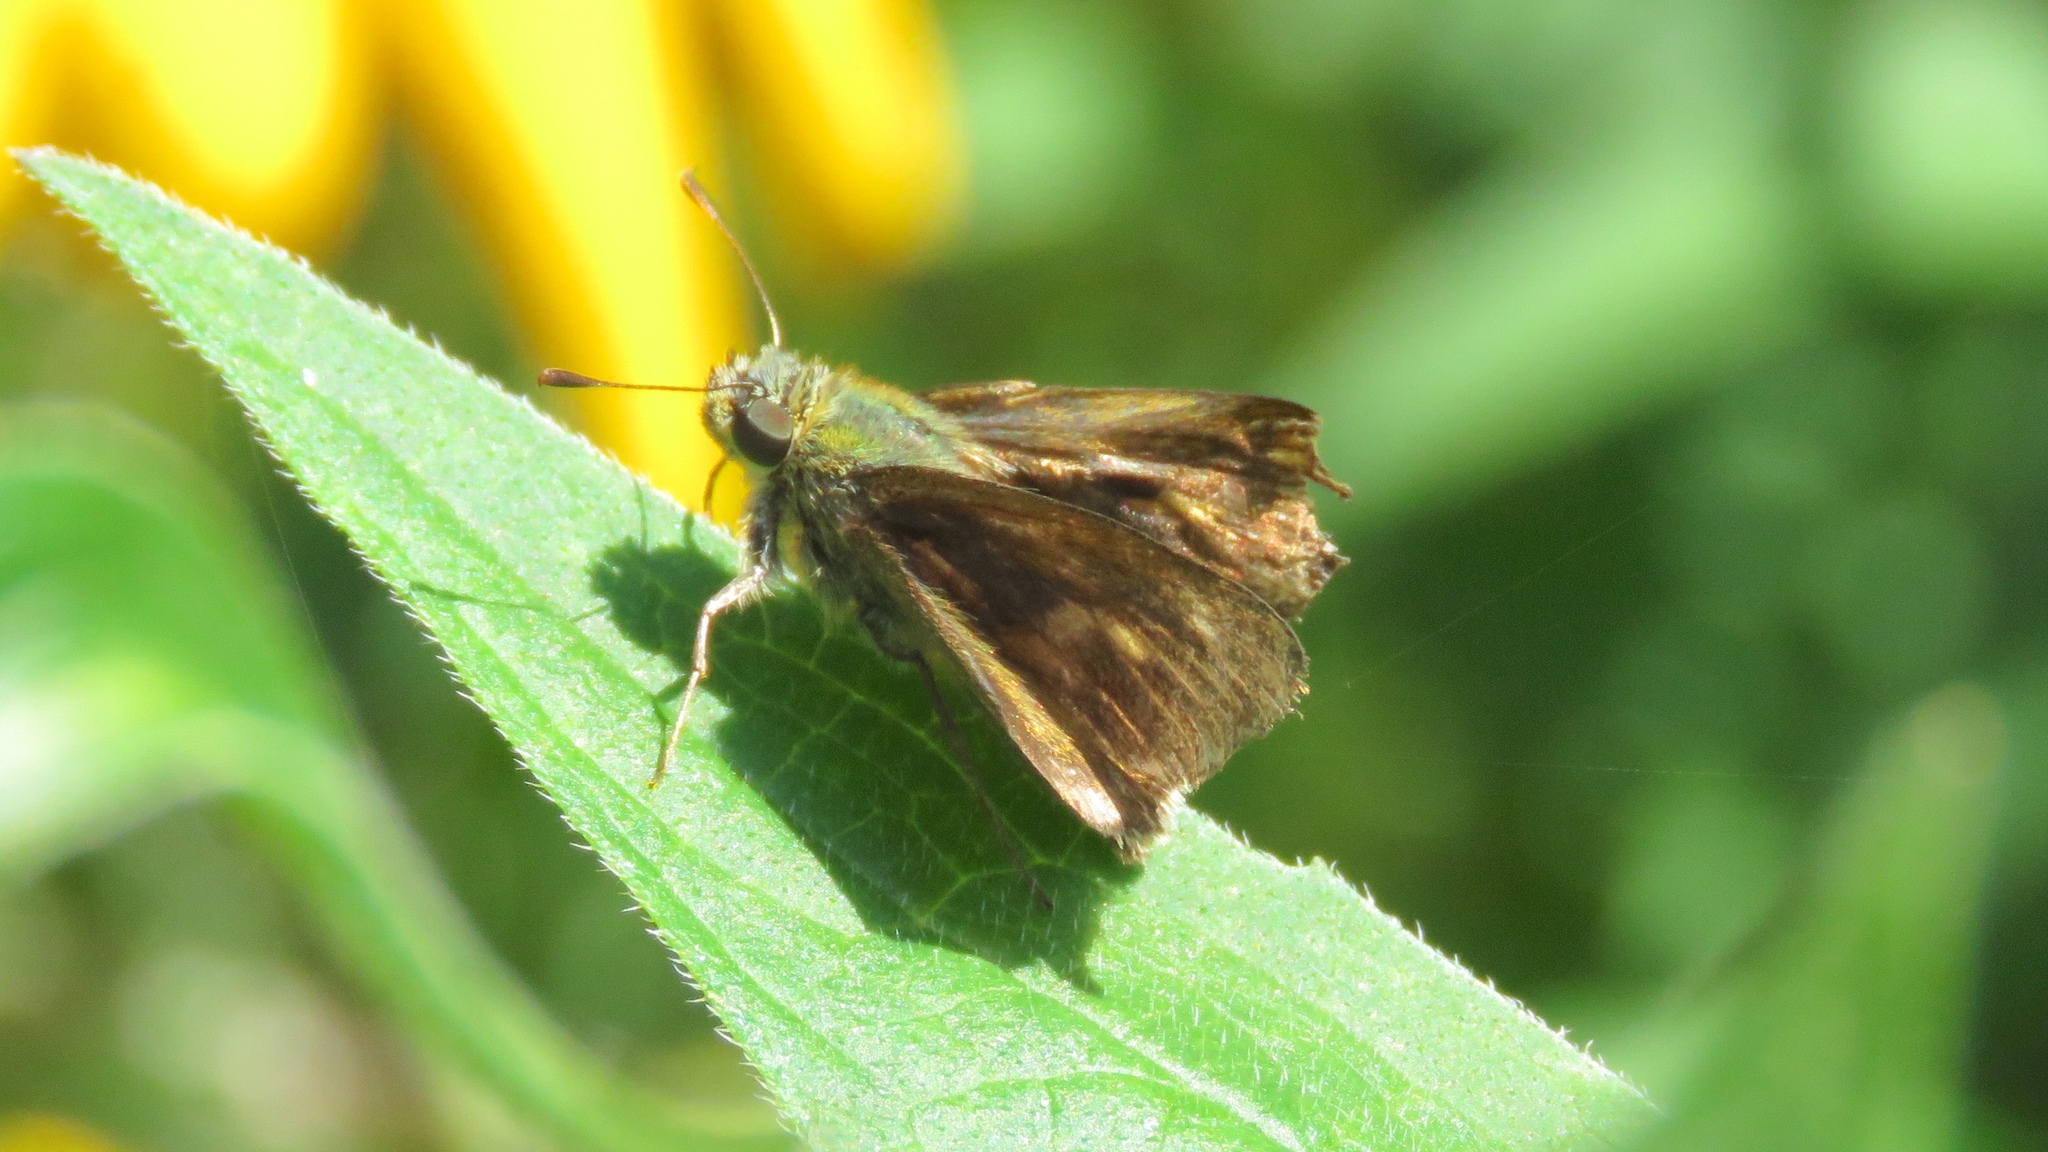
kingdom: Animalia
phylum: Arthropoda
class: Insecta
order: Lepidoptera
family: Hesperiidae
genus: Polites
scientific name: Polites egeremet
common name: Northern broken-dash
